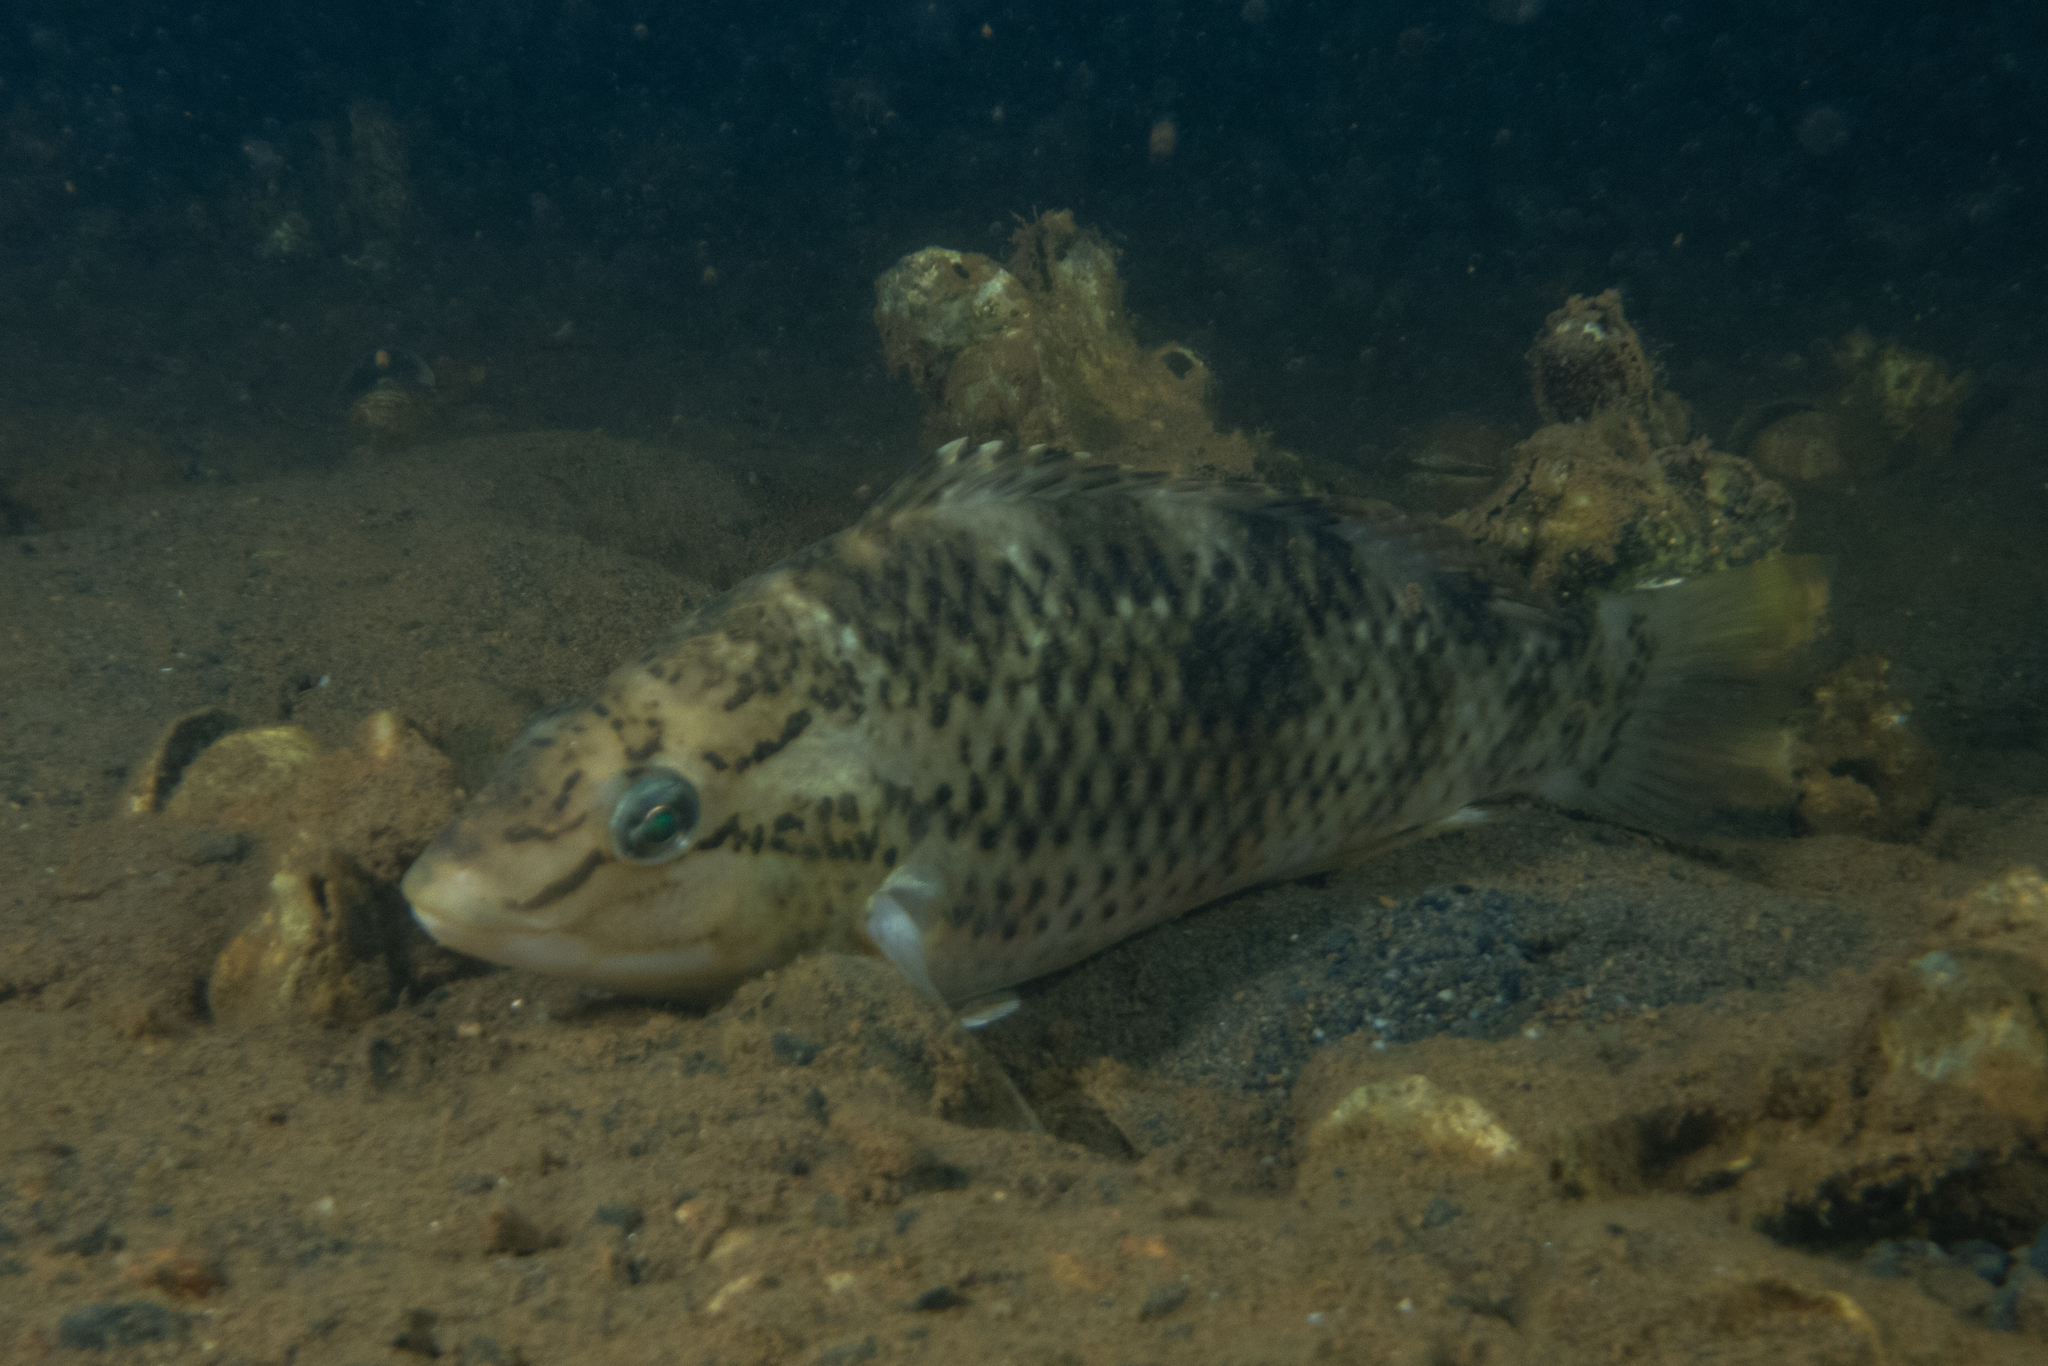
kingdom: Animalia
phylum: Chordata
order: Perciformes
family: Labridae
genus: Notolabrus
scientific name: Notolabrus celidotus
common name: Spotty
